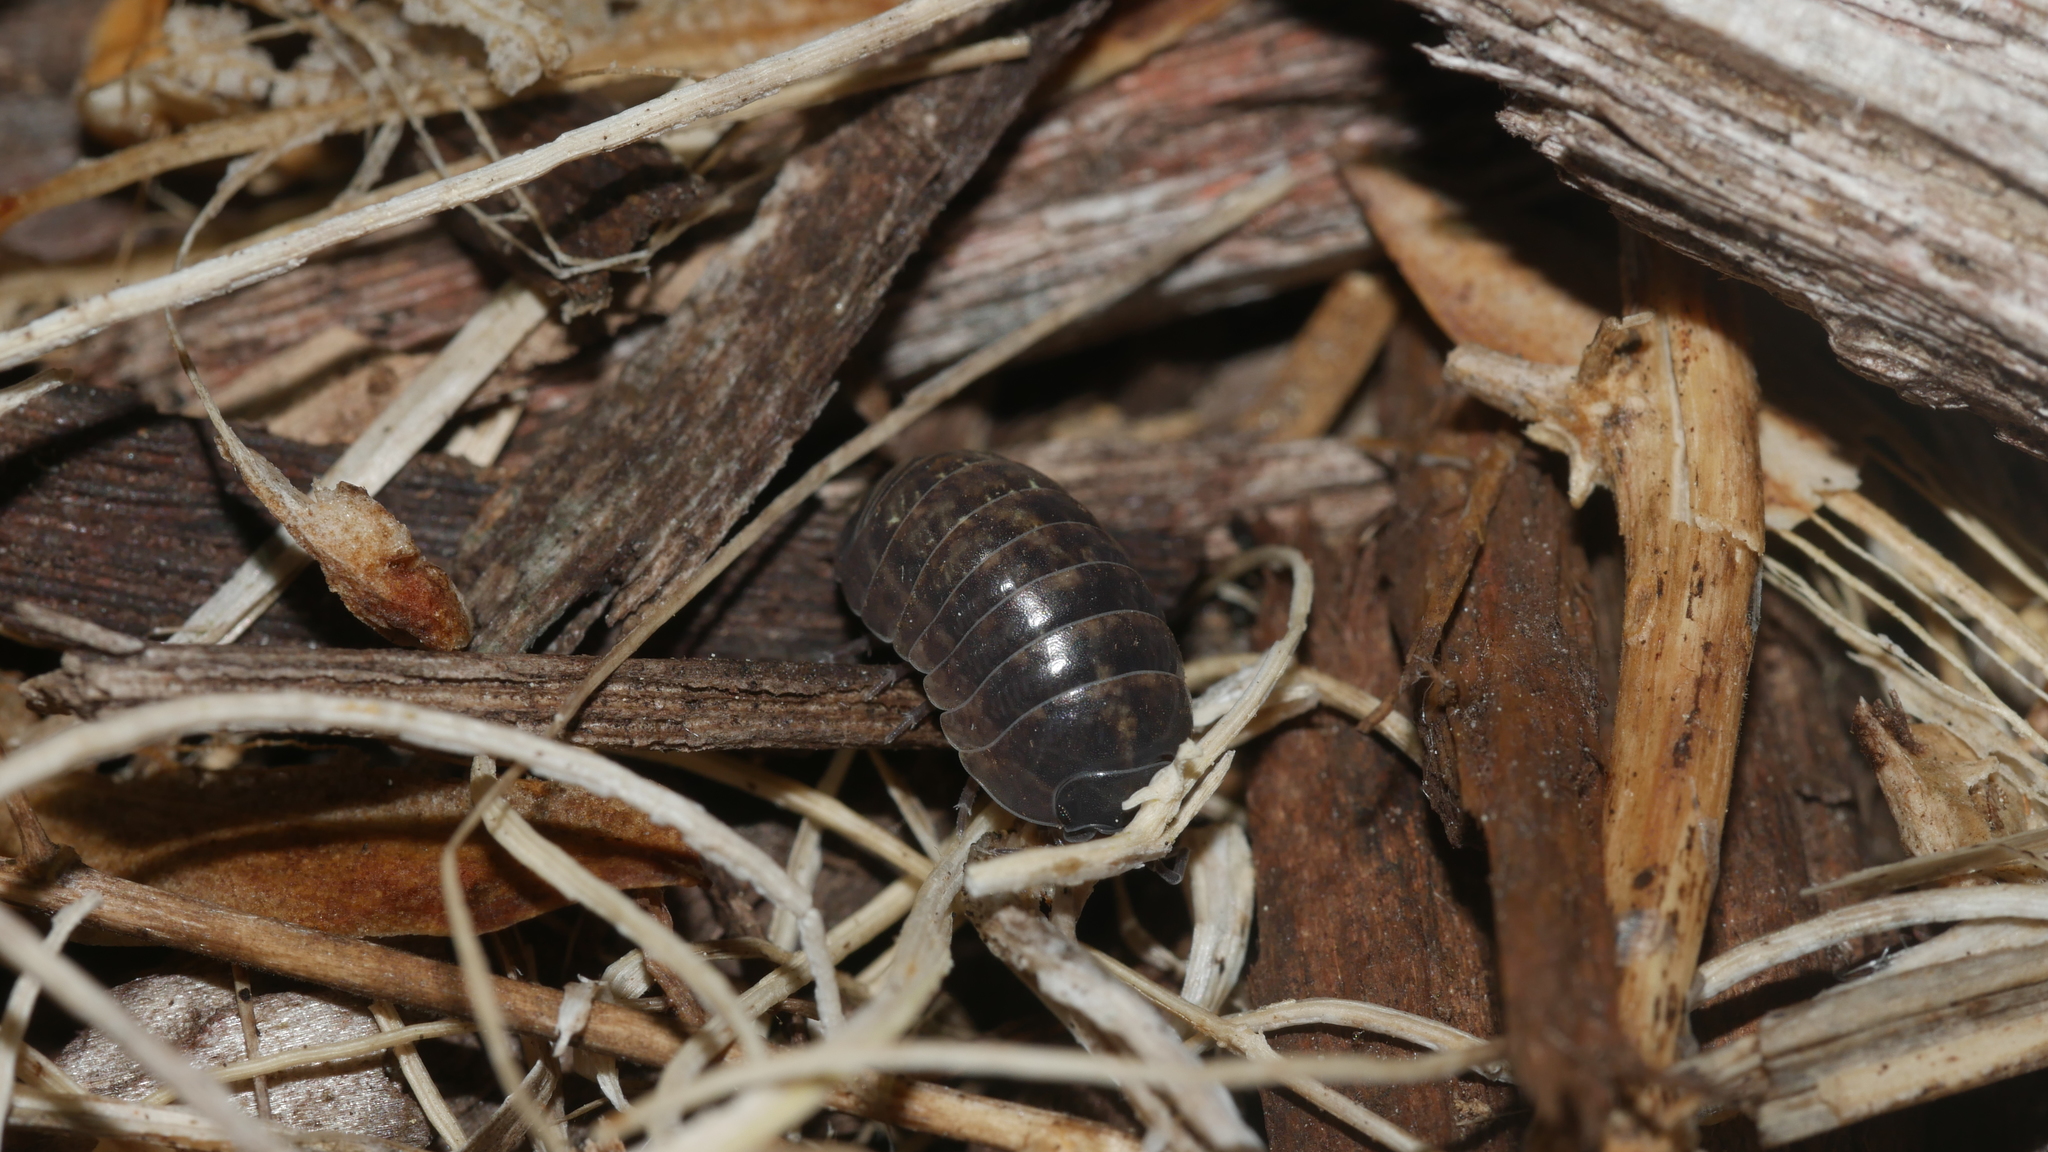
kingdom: Animalia
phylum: Arthropoda
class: Malacostraca
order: Isopoda
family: Armadillidiidae
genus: Armadillidium
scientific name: Armadillidium vulgare
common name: Common pill woodlouse
